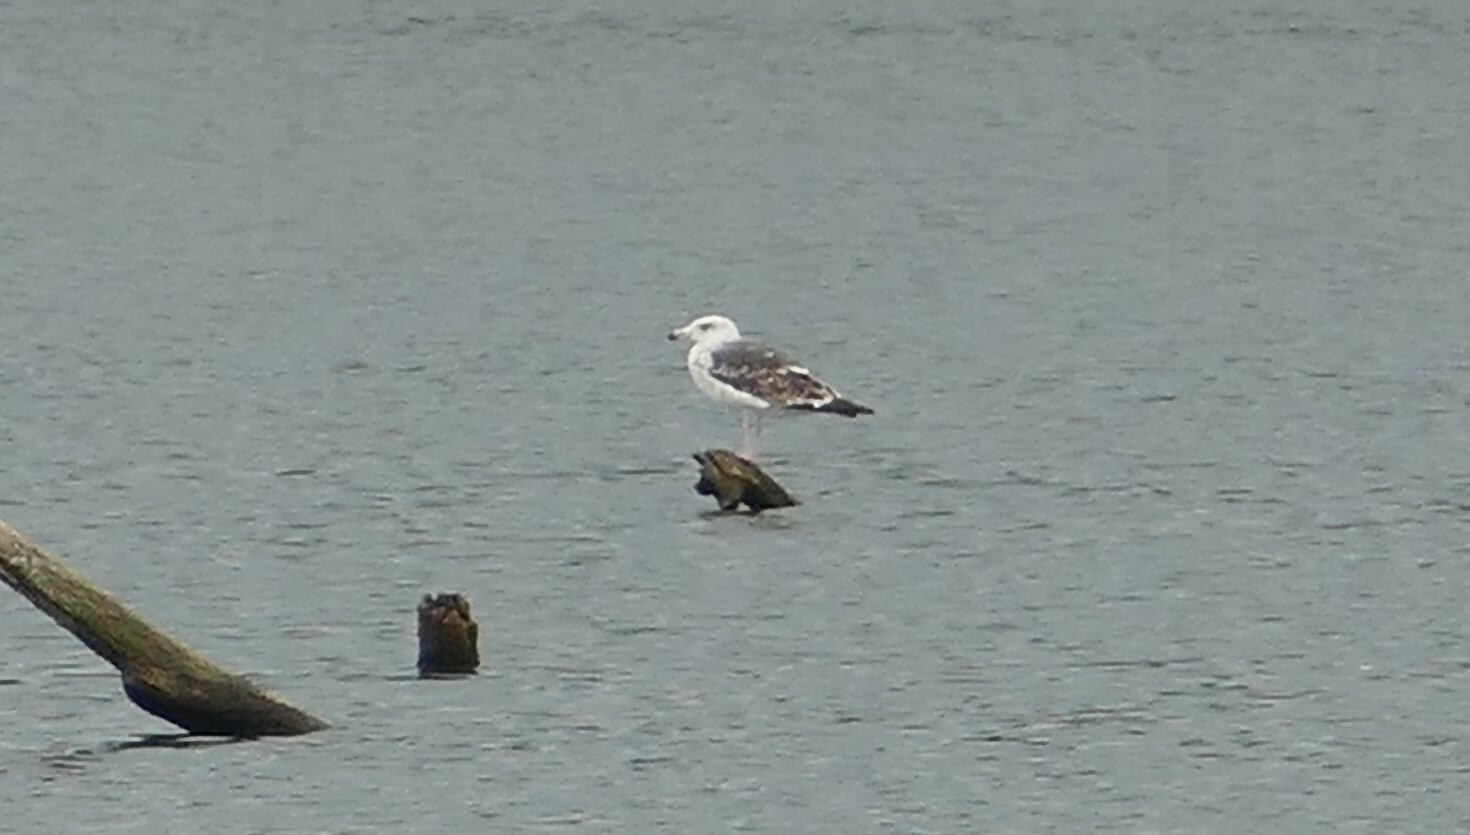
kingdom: Animalia
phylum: Chordata
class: Aves
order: Charadriiformes
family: Laridae
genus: Larus
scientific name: Larus marinus
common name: Great black-backed gull
